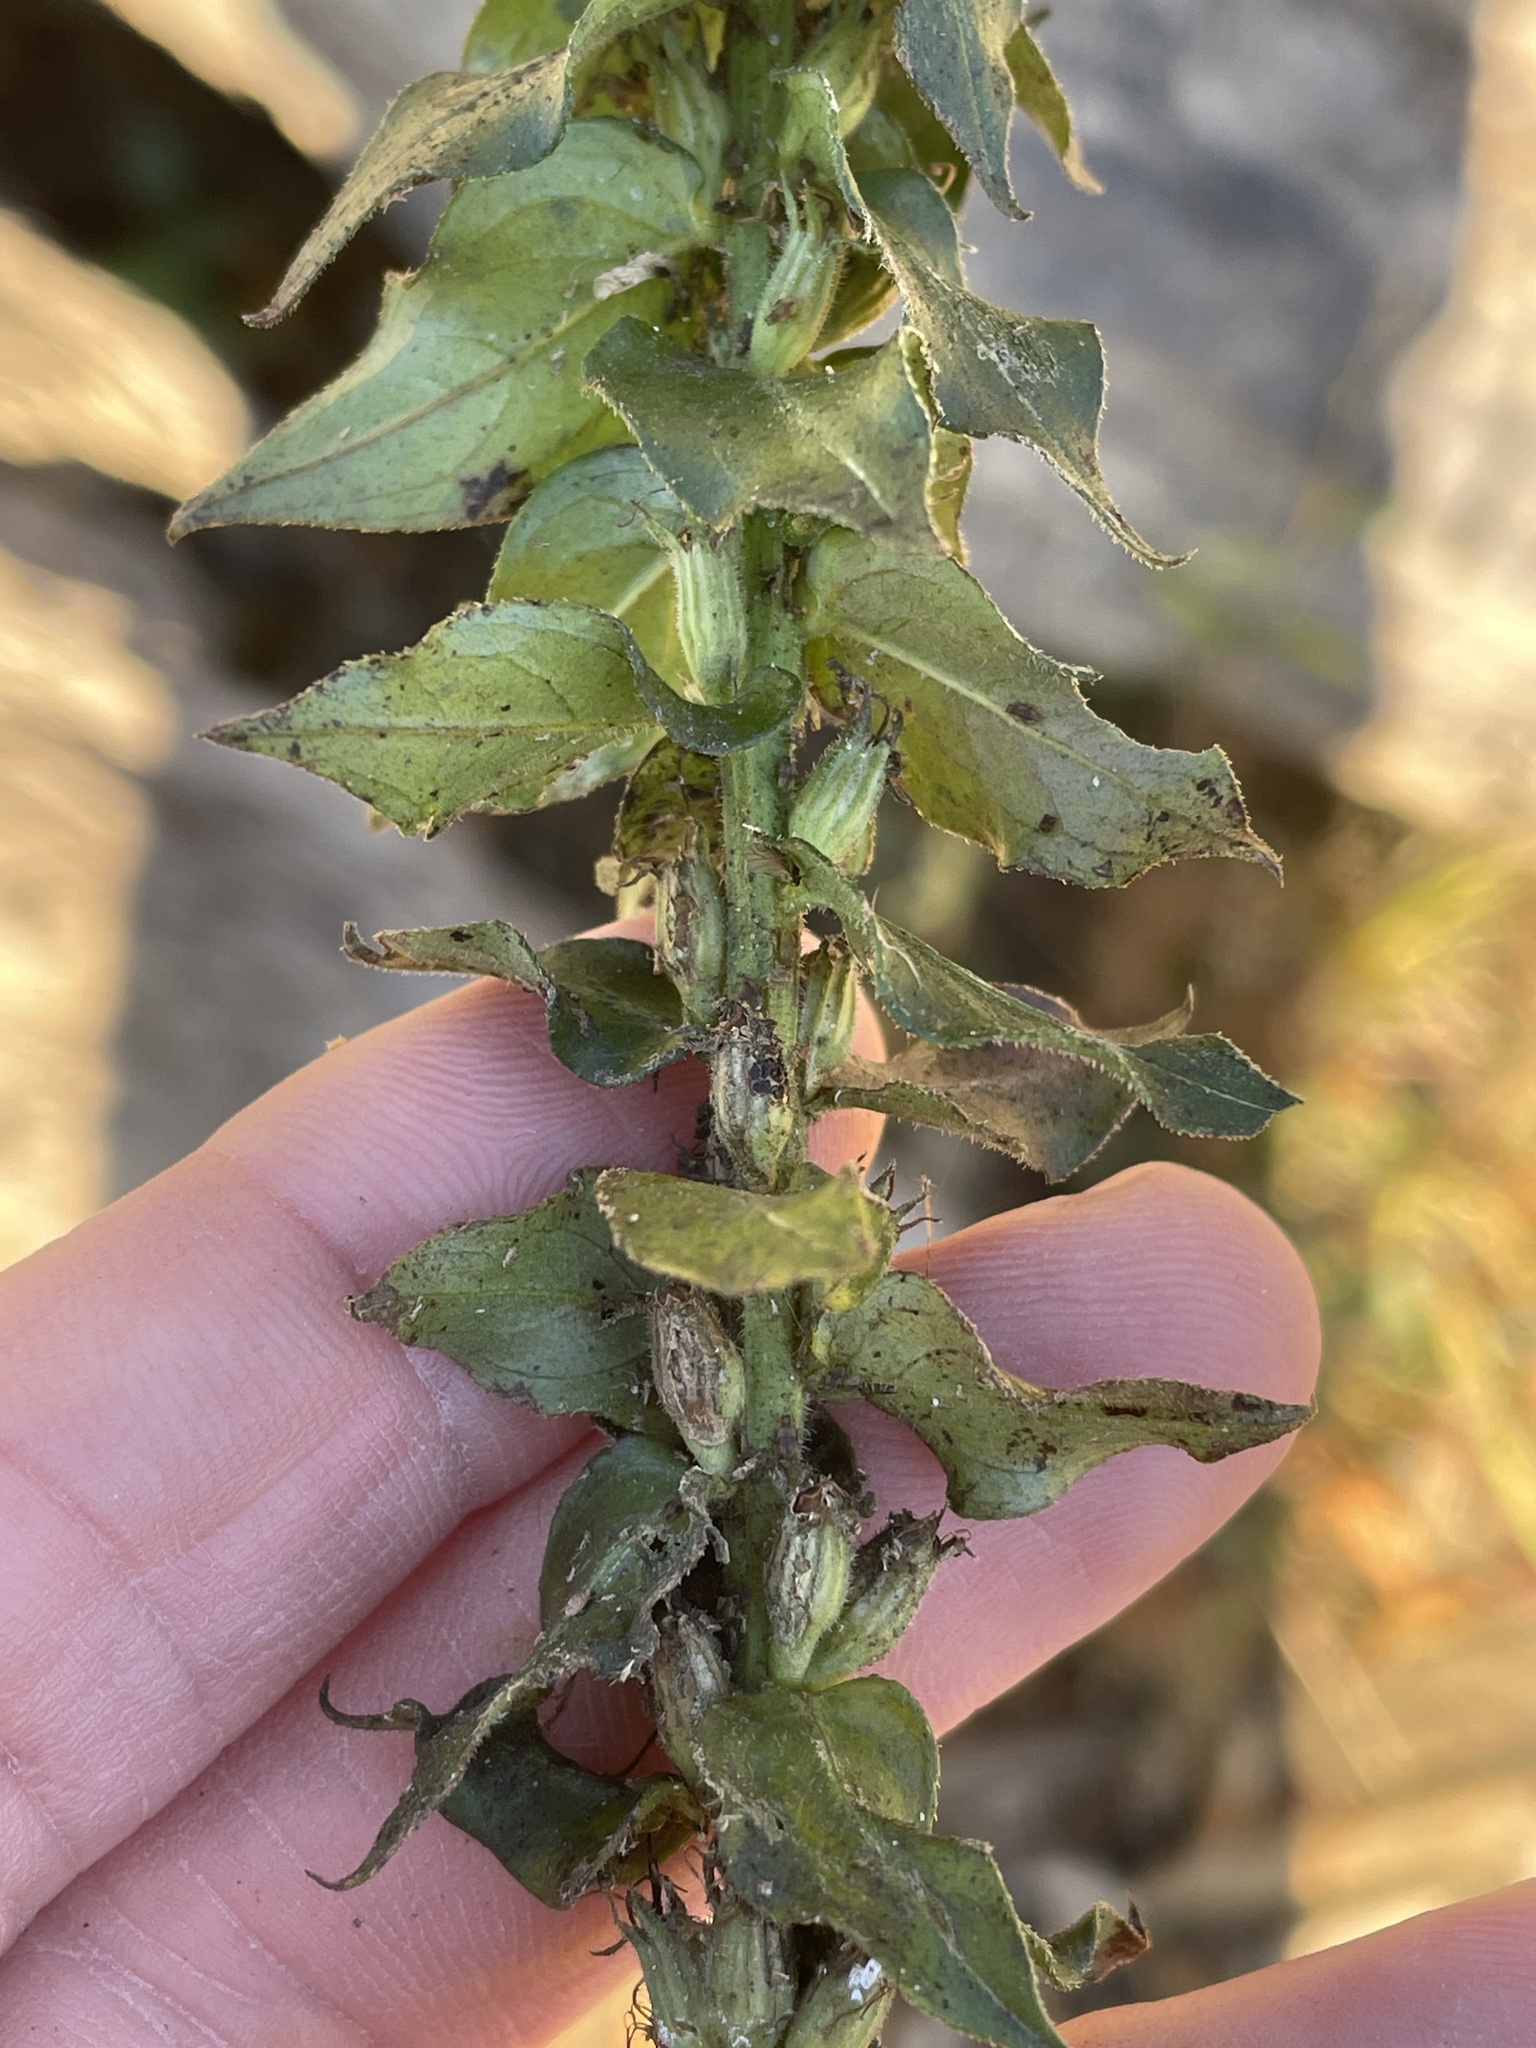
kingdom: Plantae
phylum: Tracheophyta
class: Magnoliopsida
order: Asterales
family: Campanulaceae
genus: Lobelia
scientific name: Lobelia siphilitica
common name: Great lobelia
